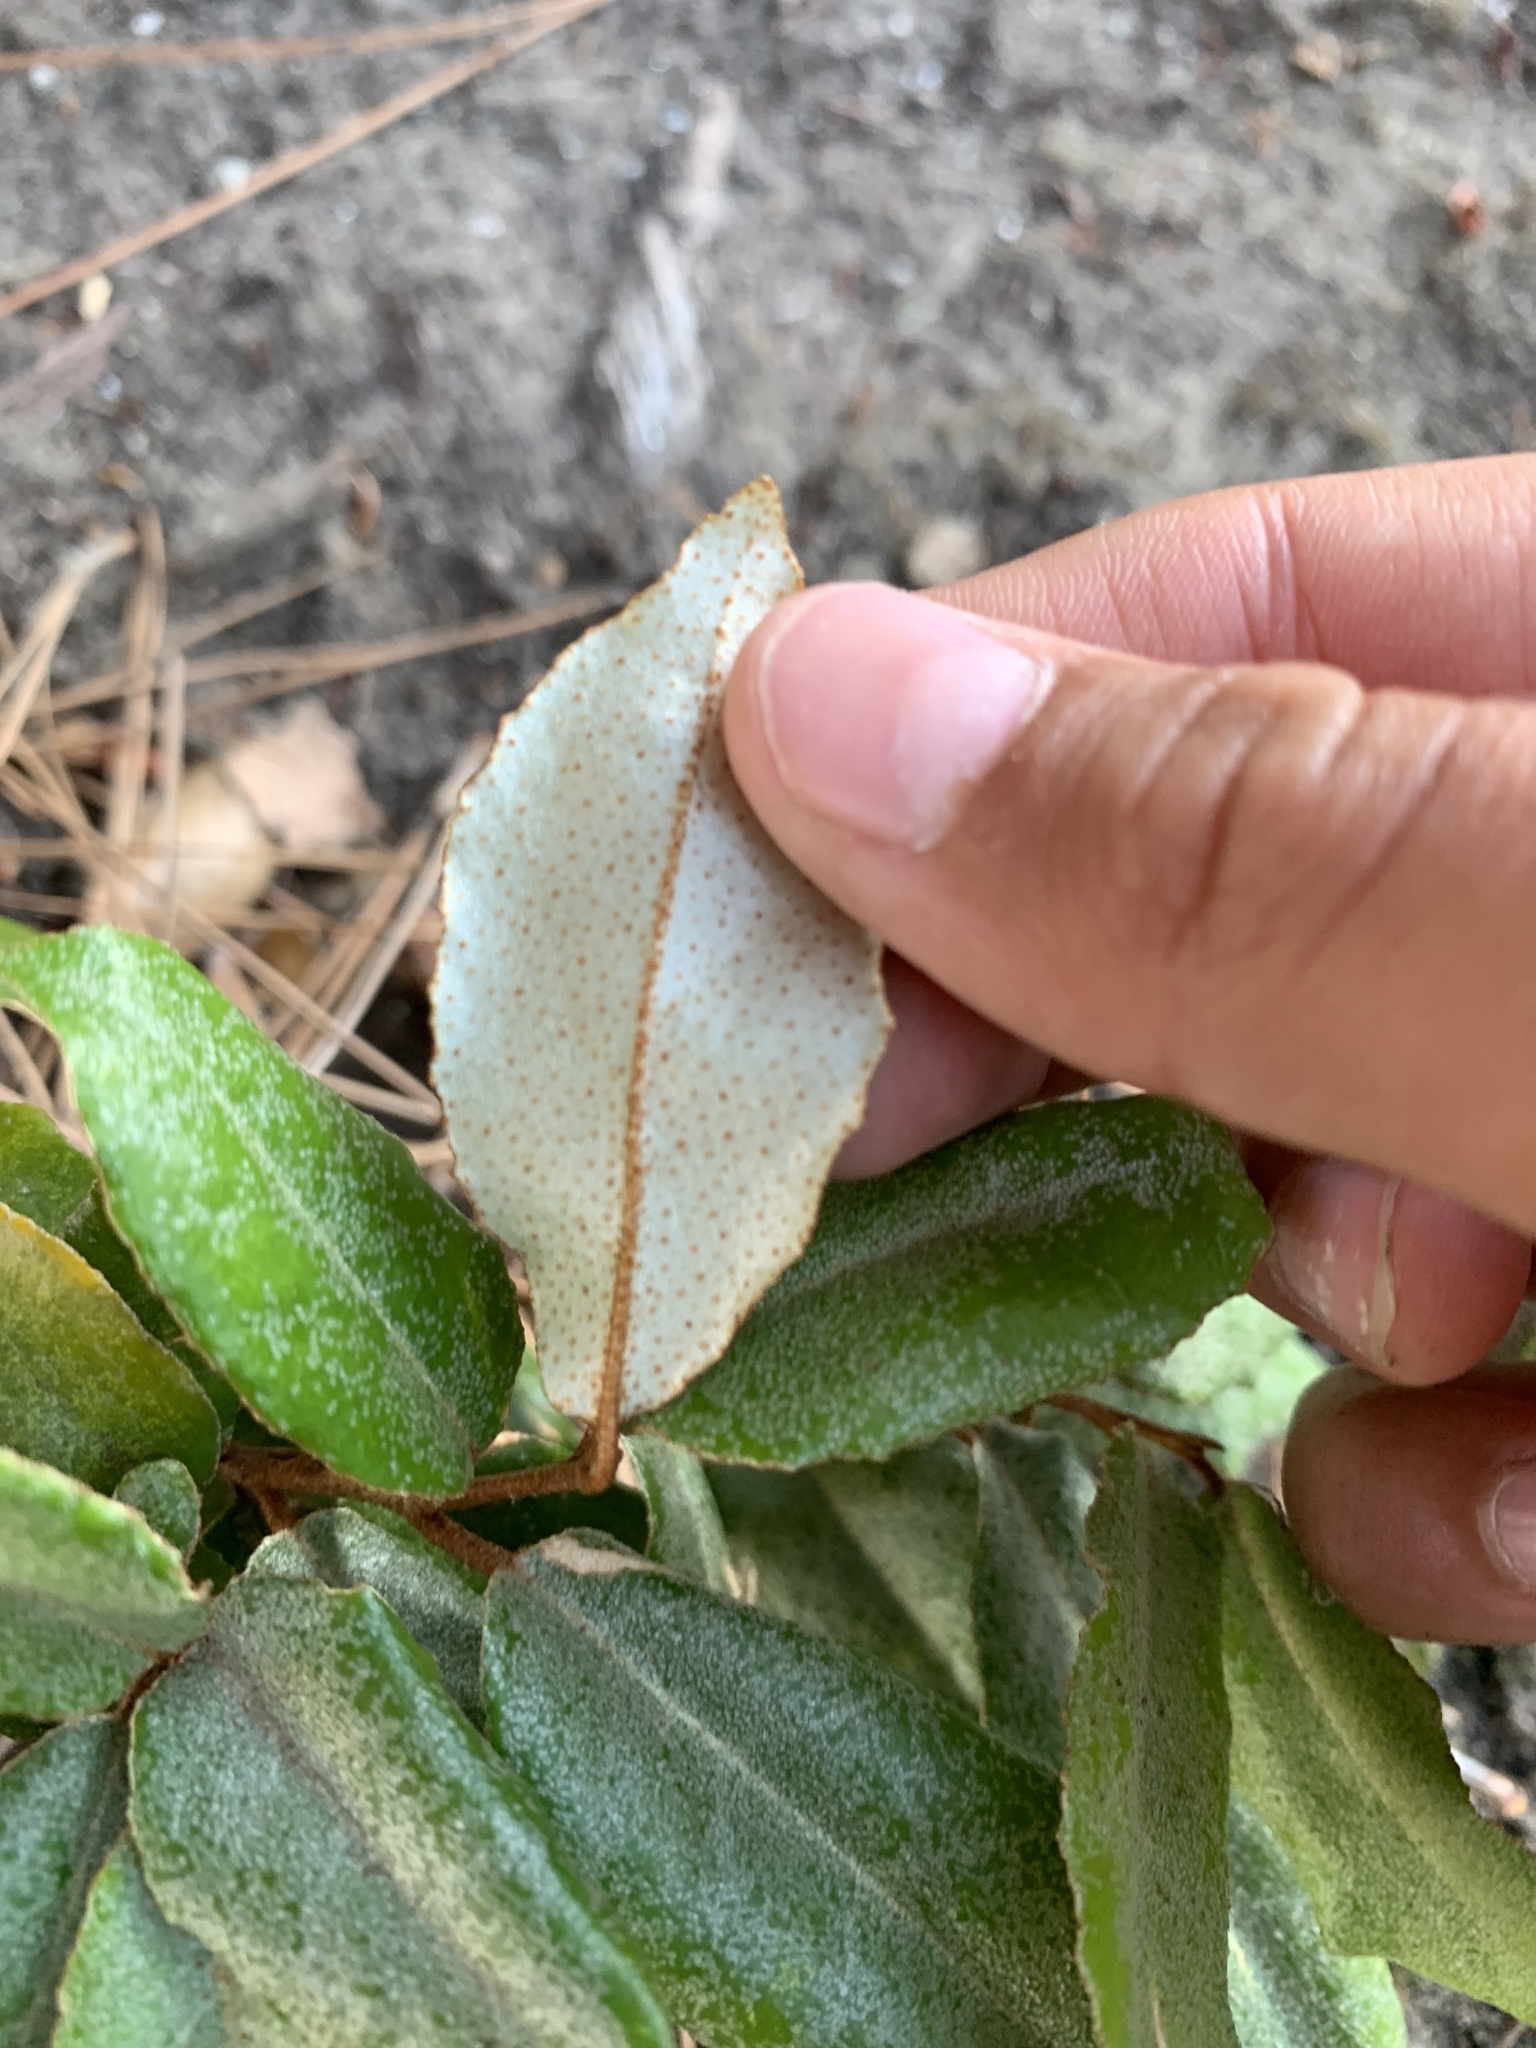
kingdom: Plantae
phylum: Tracheophyta
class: Magnoliopsida
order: Rosales
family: Elaeagnaceae
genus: Elaeagnus
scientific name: Elaeagnus pungens
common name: Spiny oleaster
